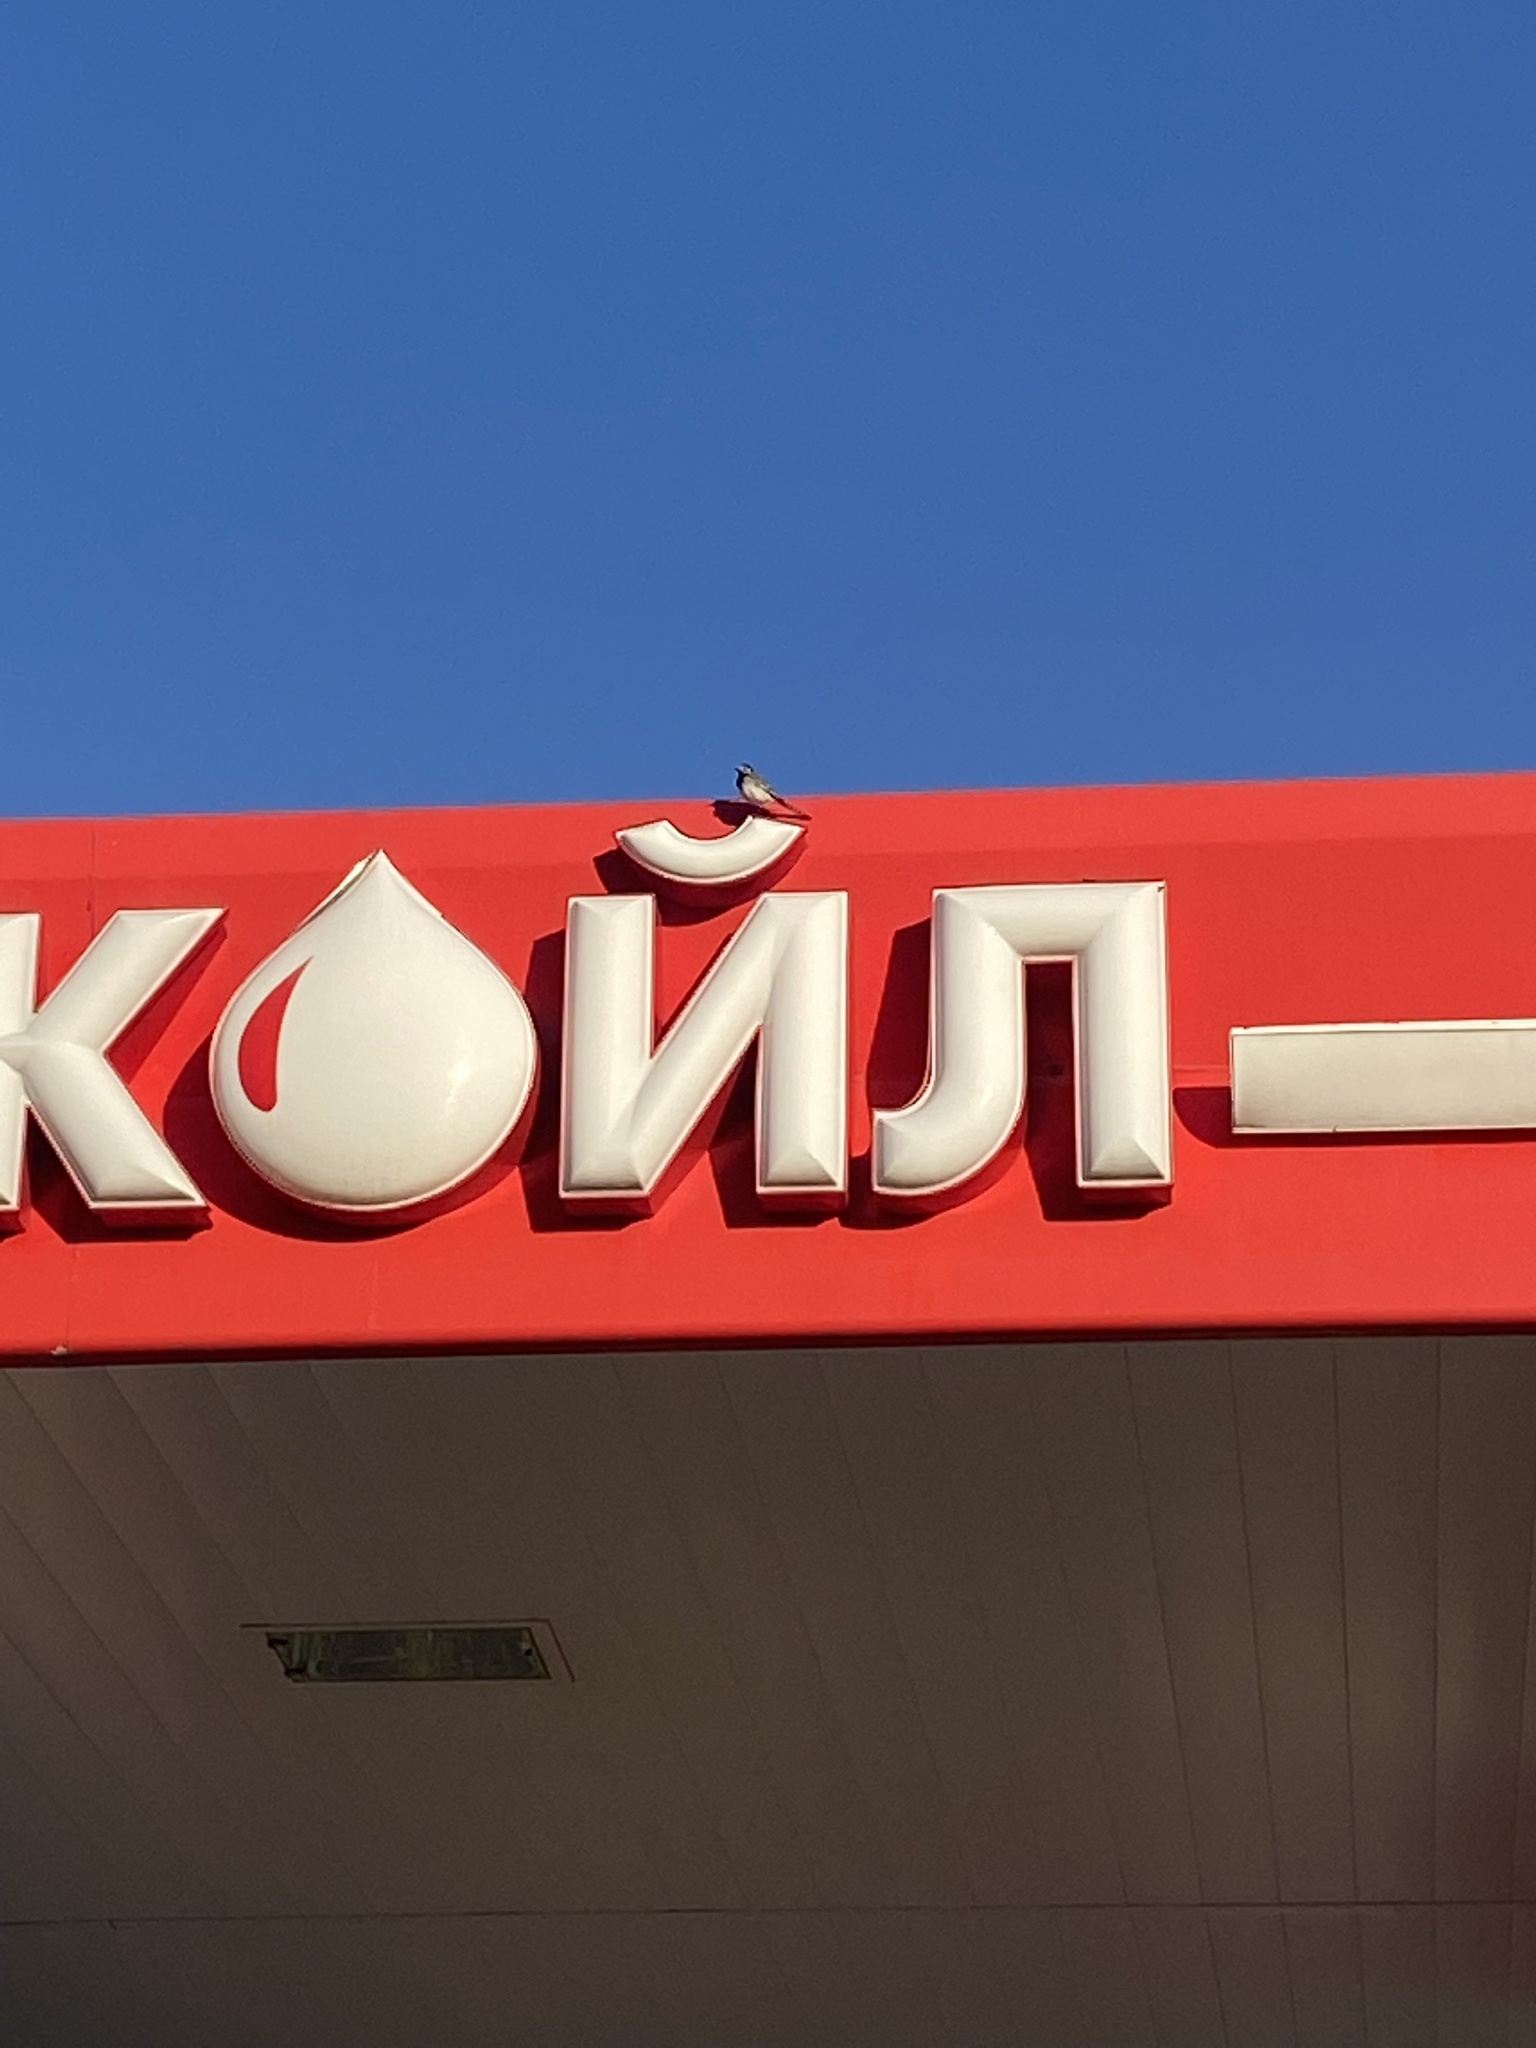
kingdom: Animalia
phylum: Chordata
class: Aves
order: Passeriformes
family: Hirundinidae
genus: Hirundo
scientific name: Hirundo rustica
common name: Barn swallow
